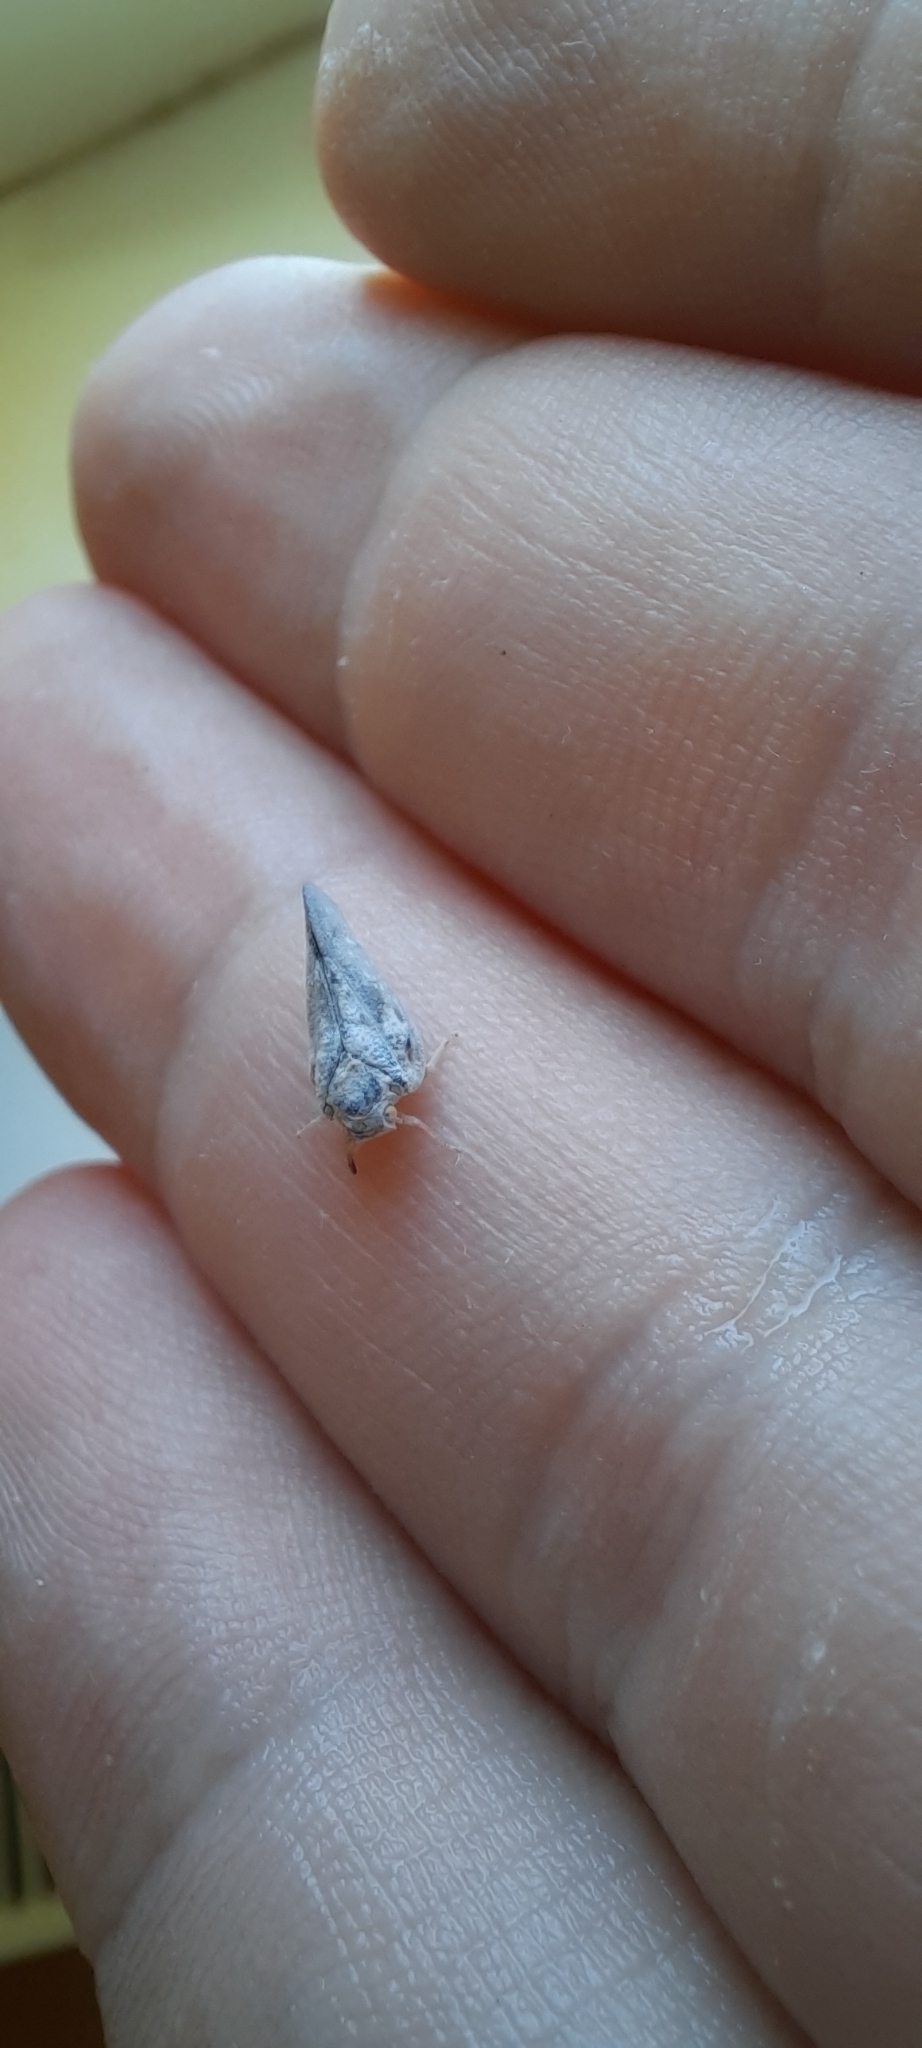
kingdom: Animalia
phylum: Arthropoda
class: Insecta
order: Hemiptera
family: Flatidae
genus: Metcalfa
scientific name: Metcalfa pruinosa
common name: Citrus flatid planthopper
